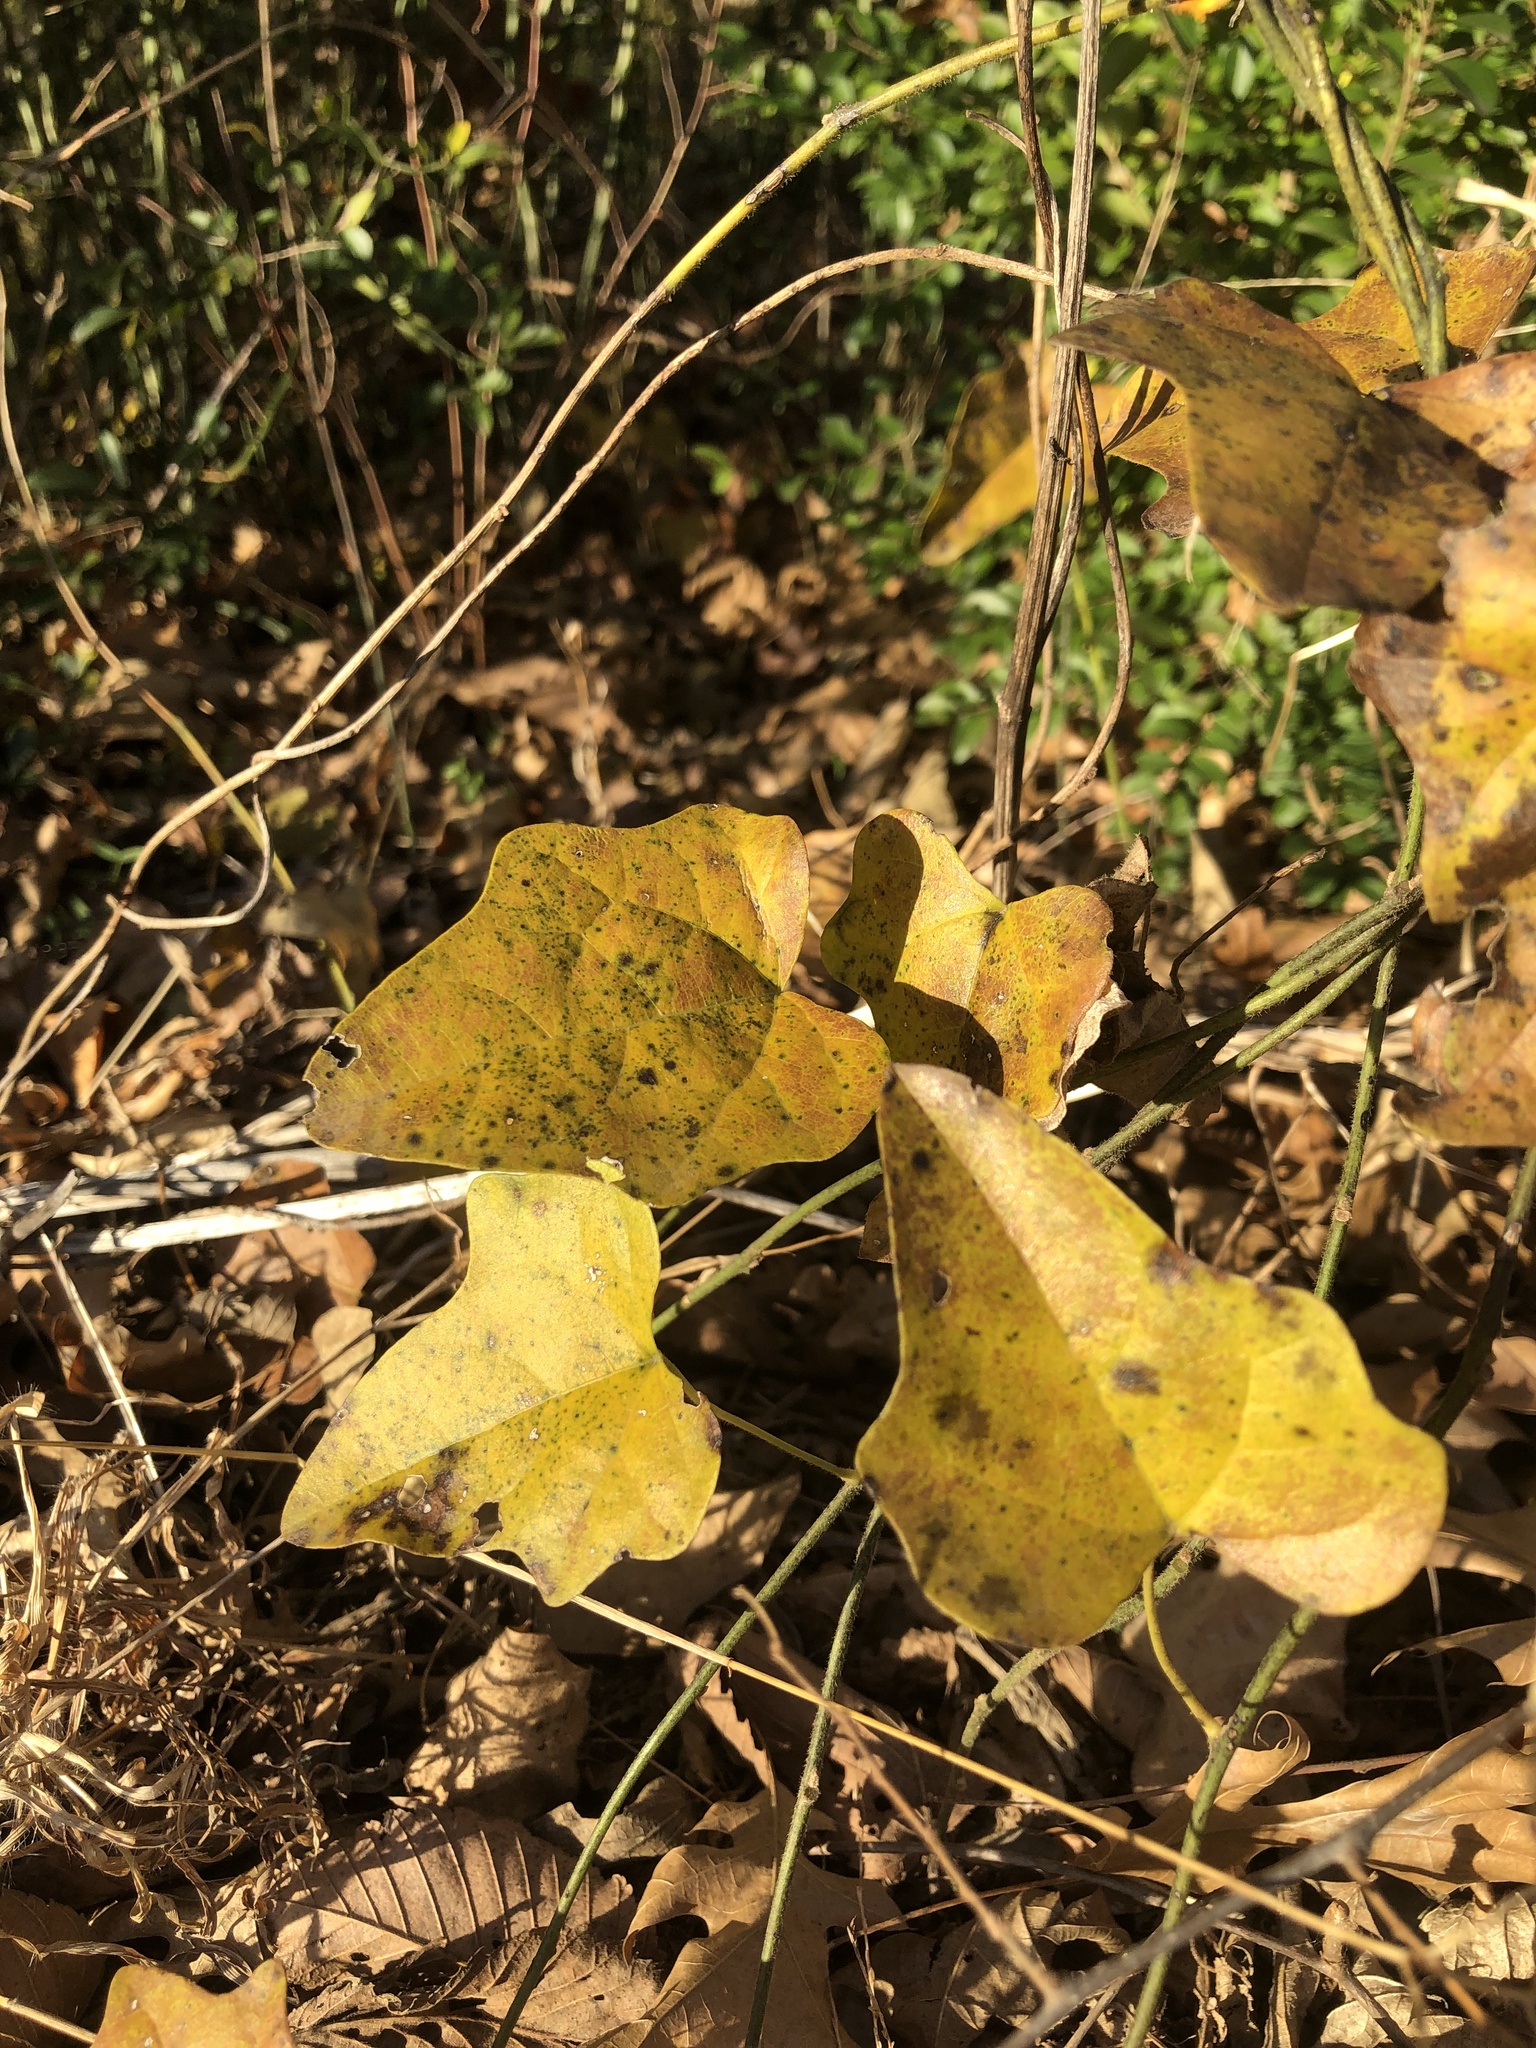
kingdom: Plantae
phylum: Tracheophyta
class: Magnoliopsida
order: Ranunculales
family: Menispermaceae
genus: Cocculus
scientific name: Cocculus carolinus
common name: Carolina moonseed
